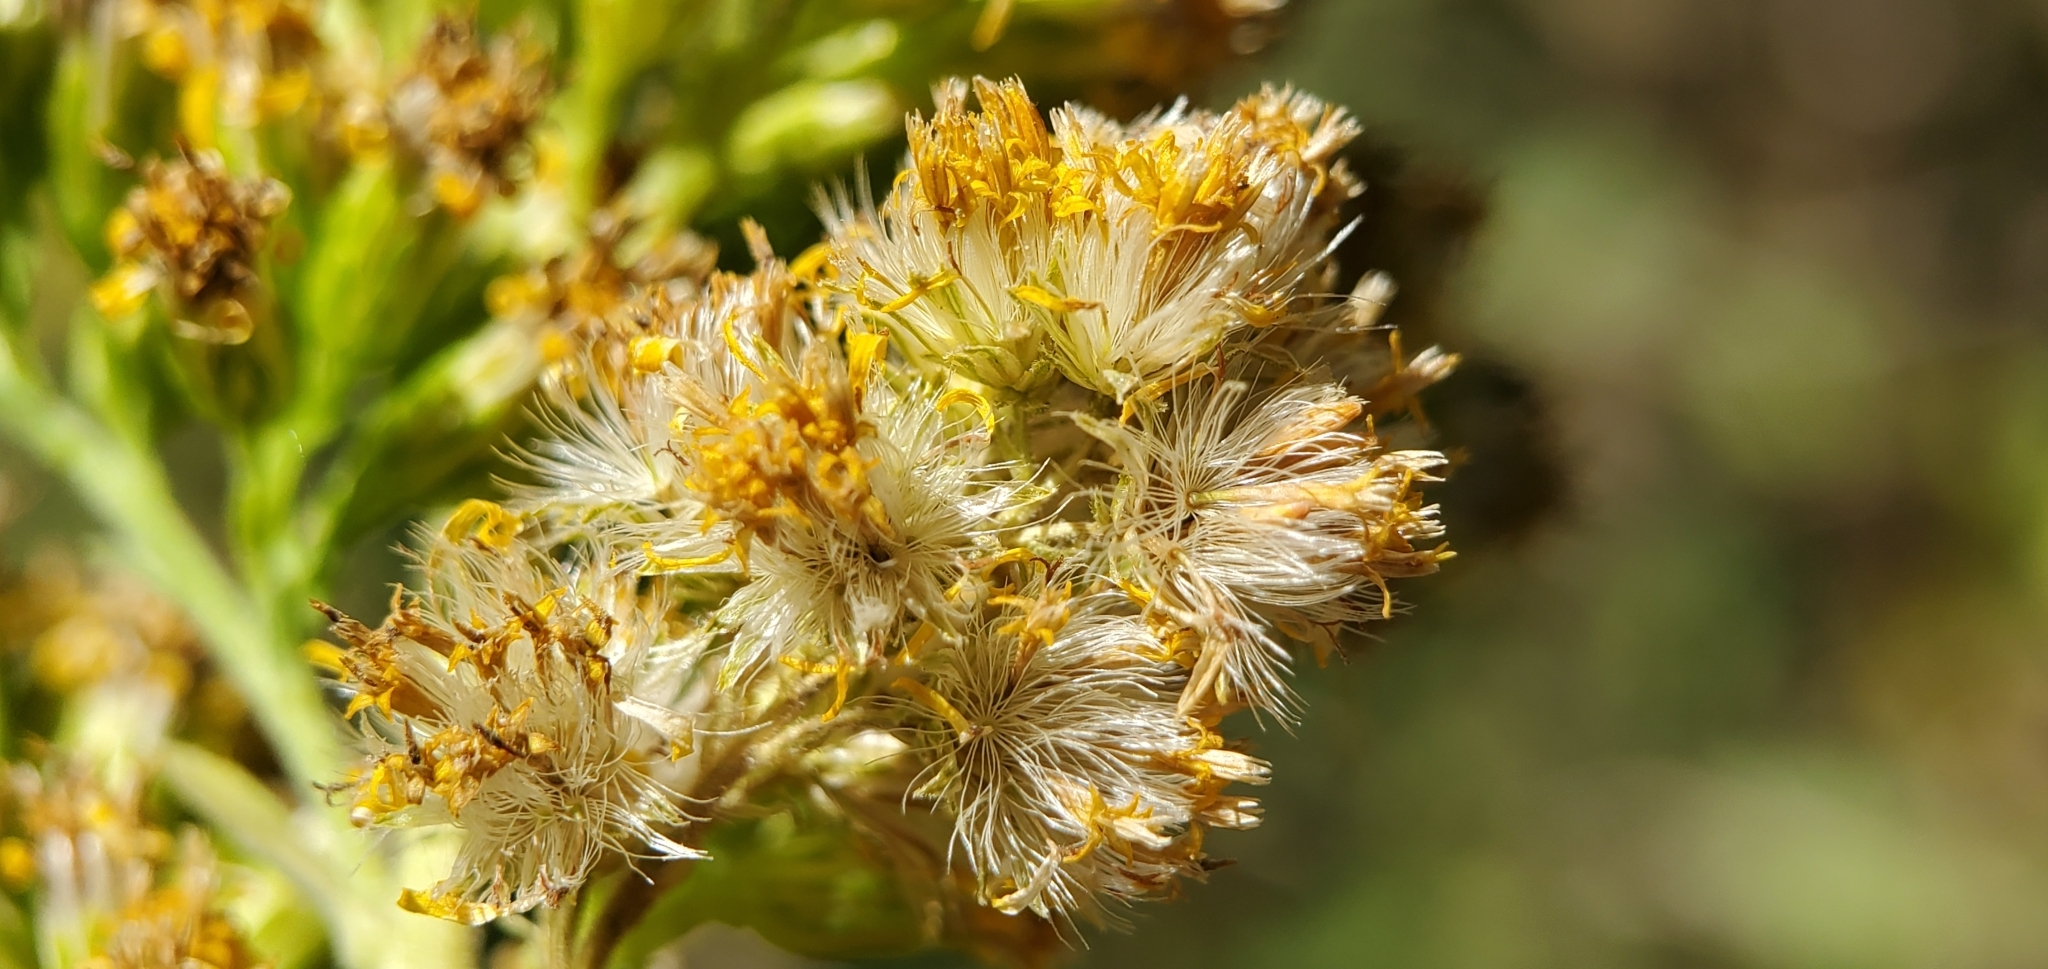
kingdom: Plantae
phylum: Tracheophyta
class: Magnoliopsida
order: Asterales
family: Asteraceae
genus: Solidago
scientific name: Solidago californica
